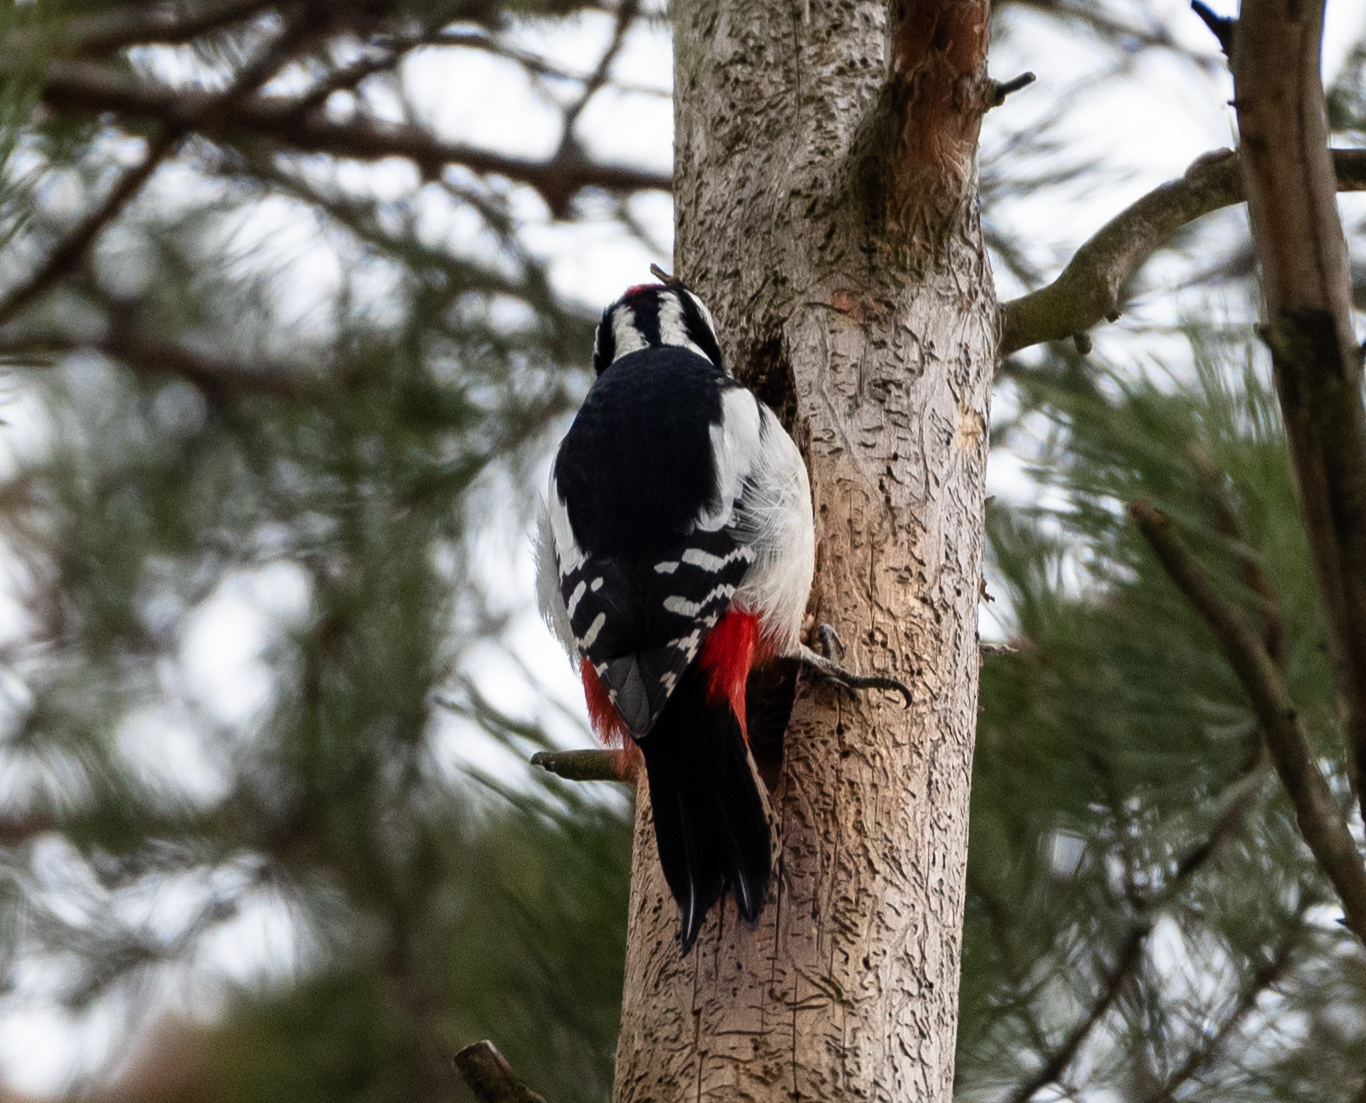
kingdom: Animalia
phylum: Chordata
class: Aves
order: Piciformes
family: Picidae
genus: Dendrocopos
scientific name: Dendrocopos major
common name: Great spotted woodpecker
